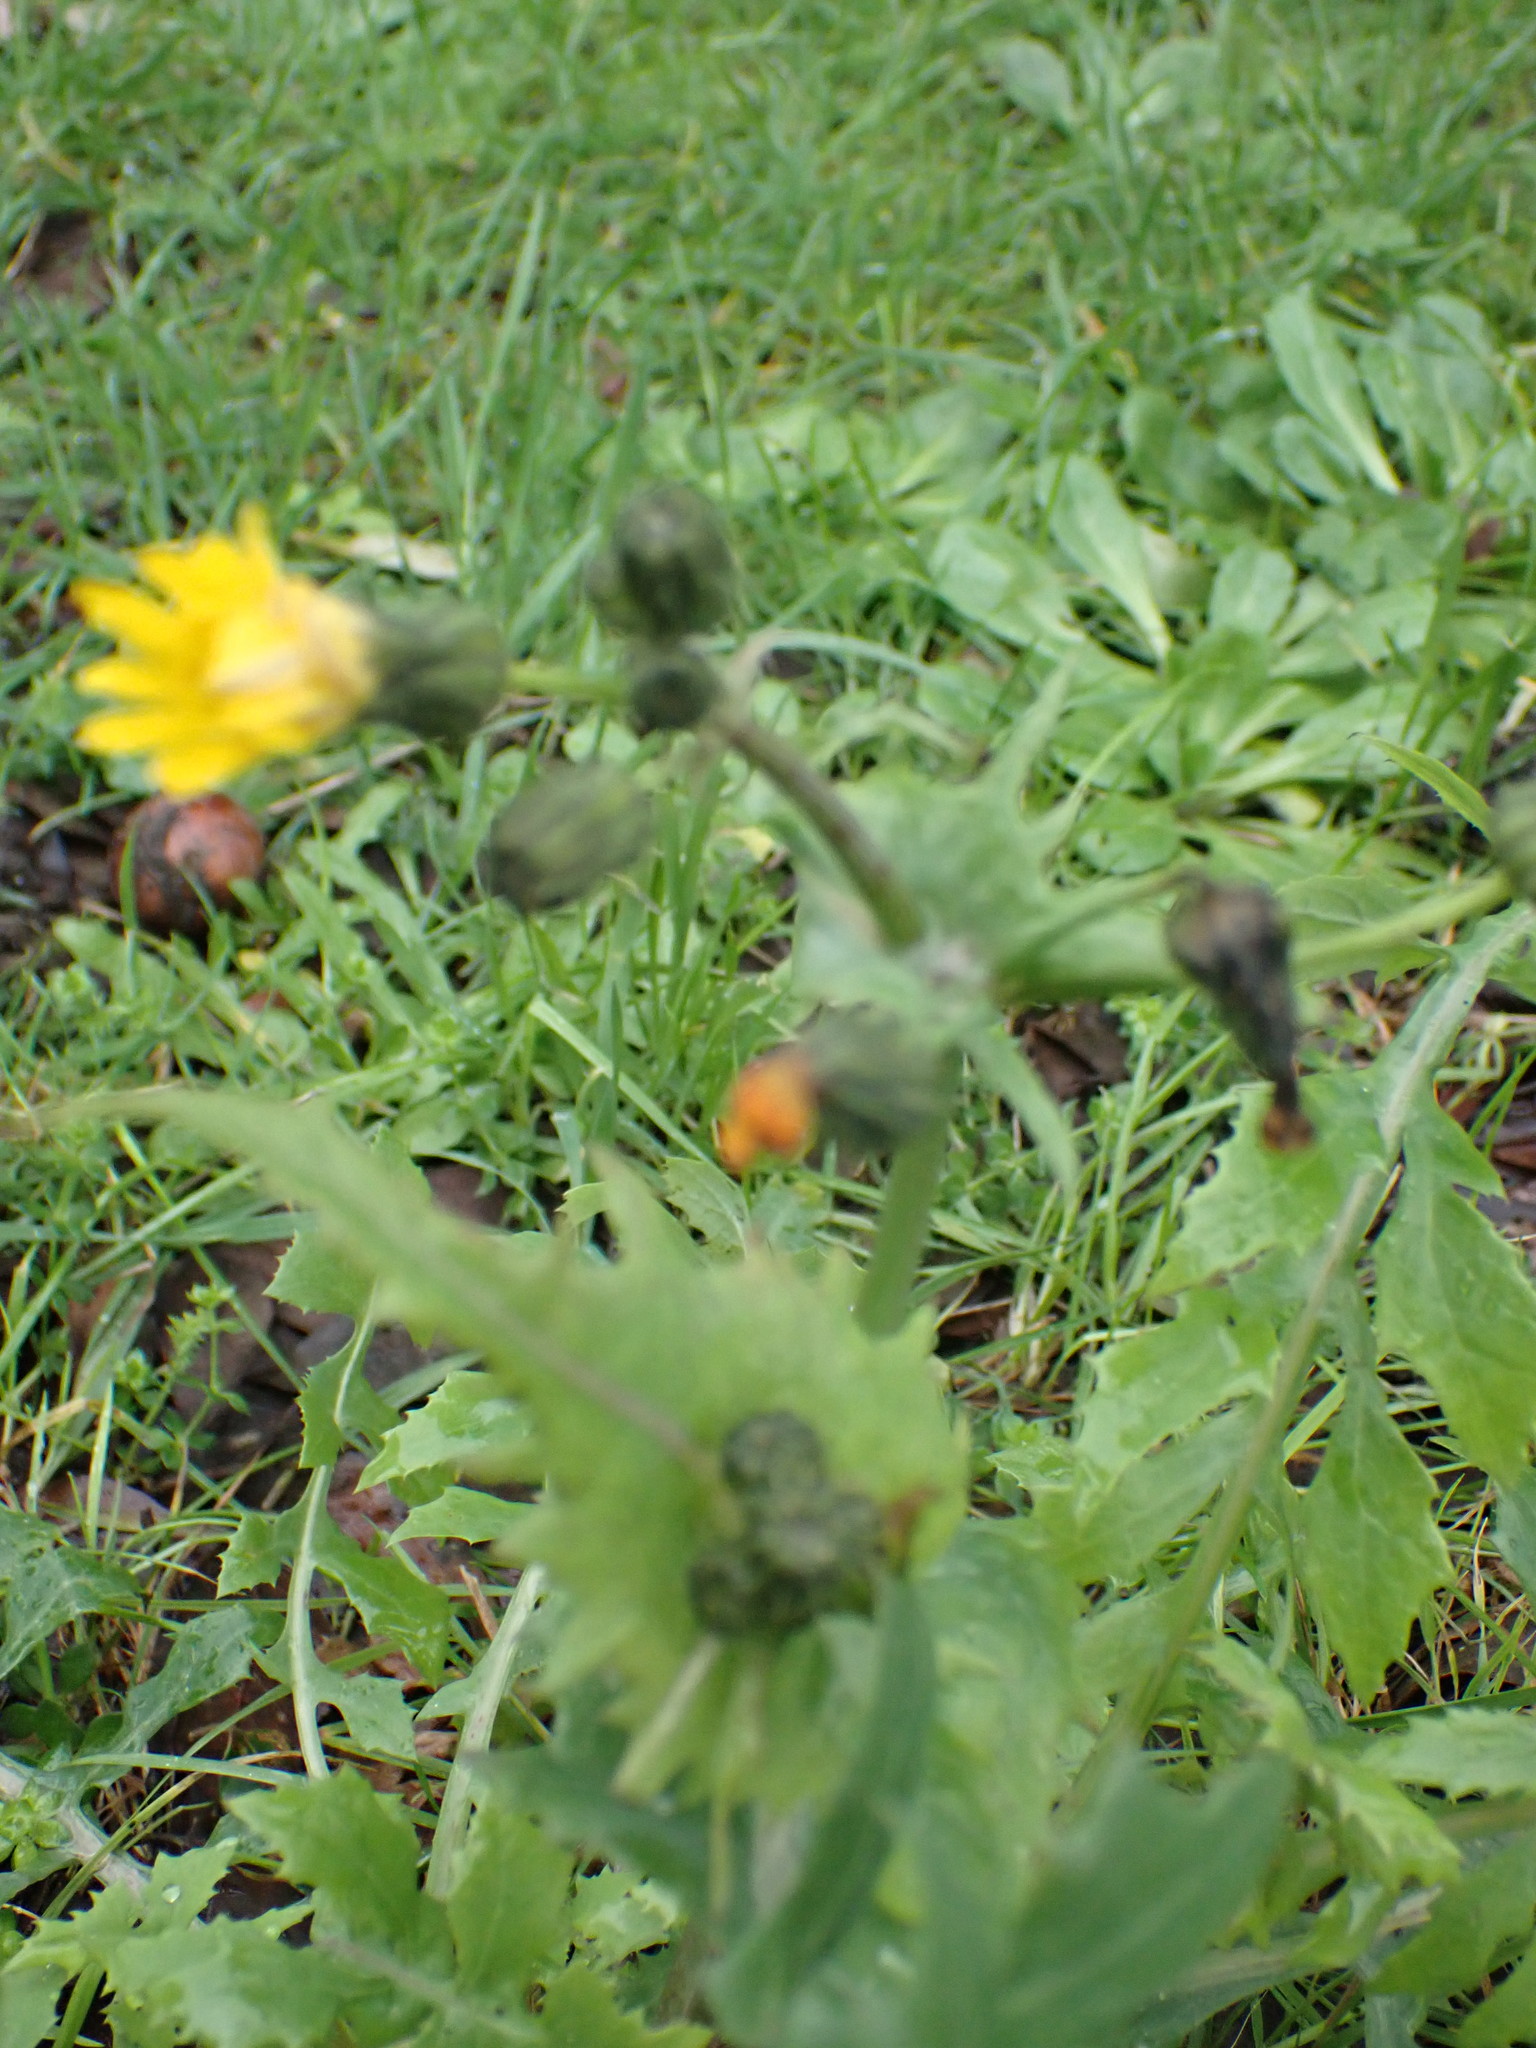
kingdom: Plantae
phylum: Tracheophyta
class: Magnoliopsida
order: Asterales
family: Asteraceae
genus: Sonchus
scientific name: Sonchus oleraceus
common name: Common sowthistle
